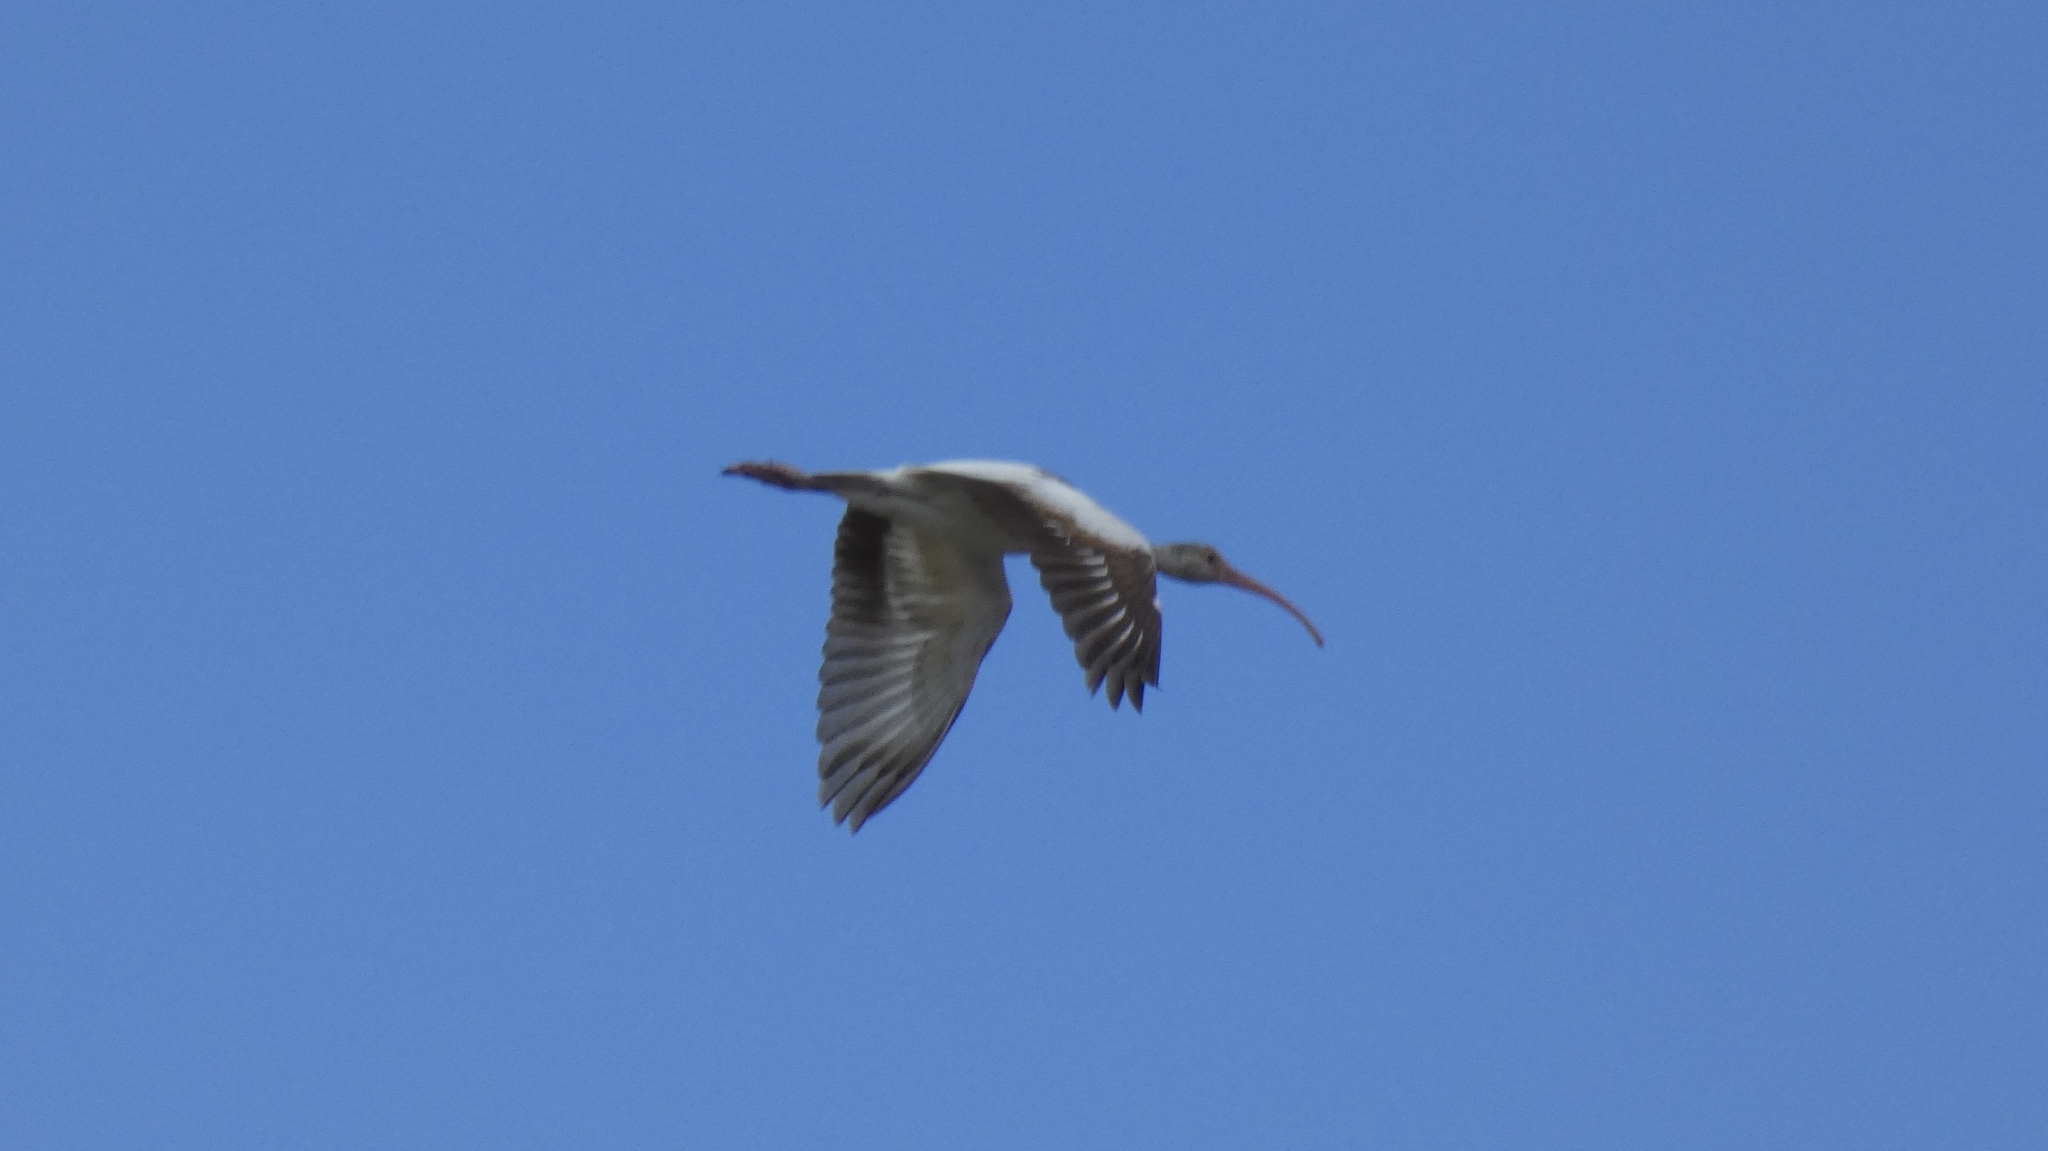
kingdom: Animalia
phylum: Chordata
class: Aves
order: Pelecaniformes
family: Threskiornithidae
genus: Eudocimus
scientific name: Eudocimus albus
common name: White ibis
